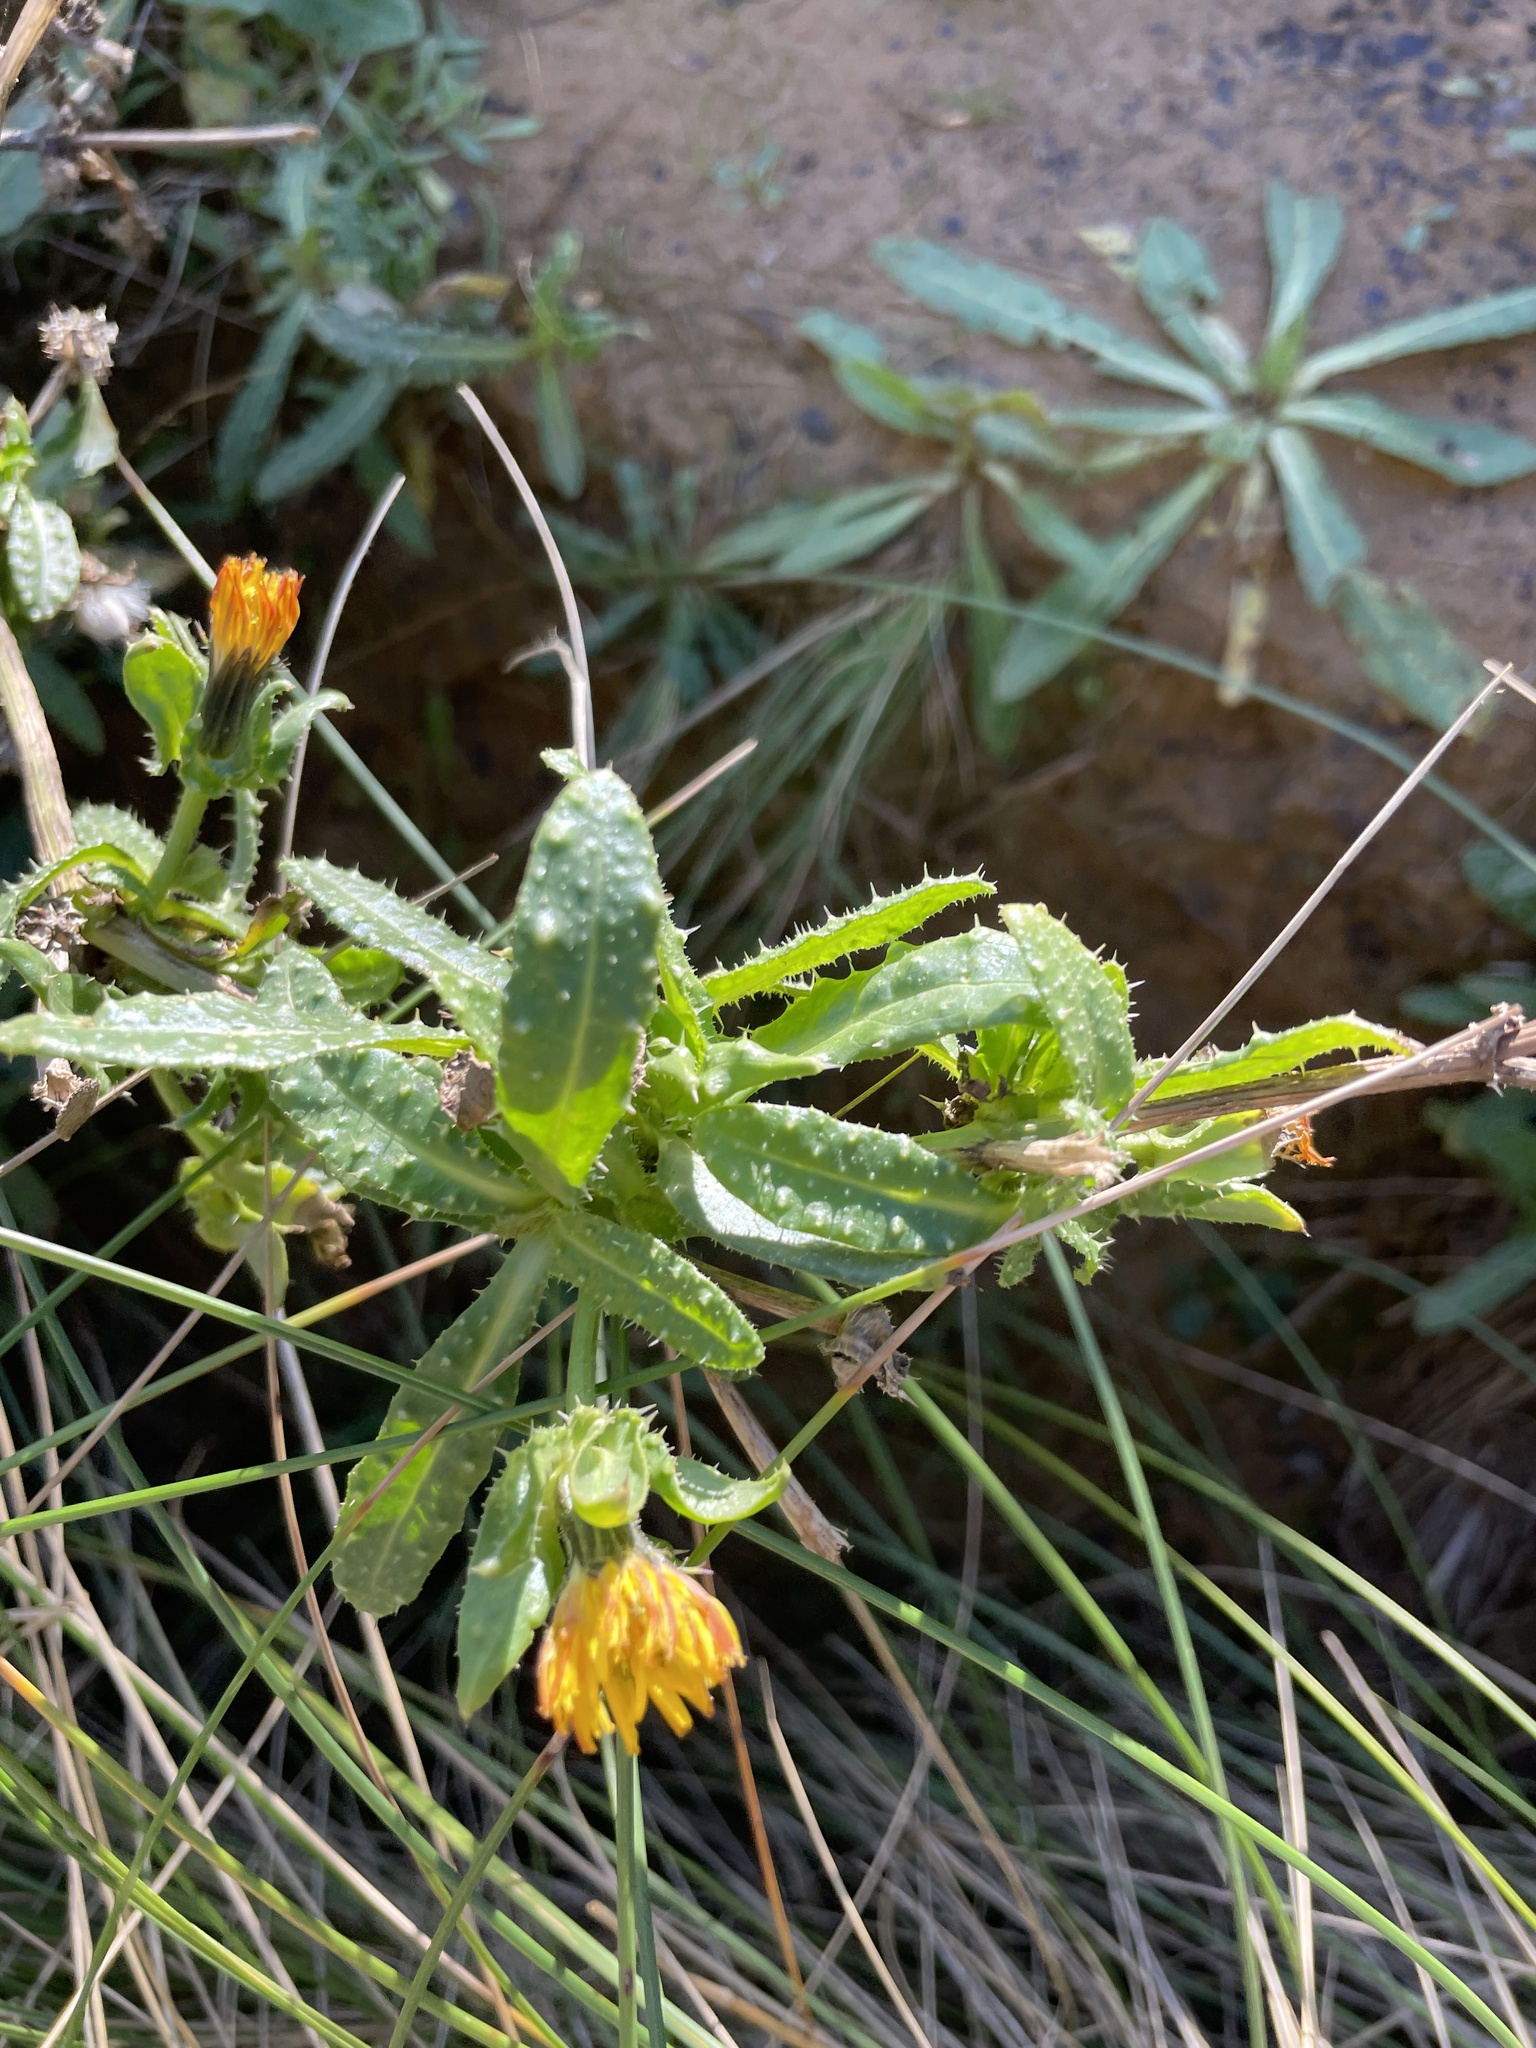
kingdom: Plantae
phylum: Tracheophyta
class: Magnoliopsida
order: Asterales
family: Asteraceae
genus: Helminthotheca
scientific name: Helminthotheca echioides
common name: Ox-tongue
